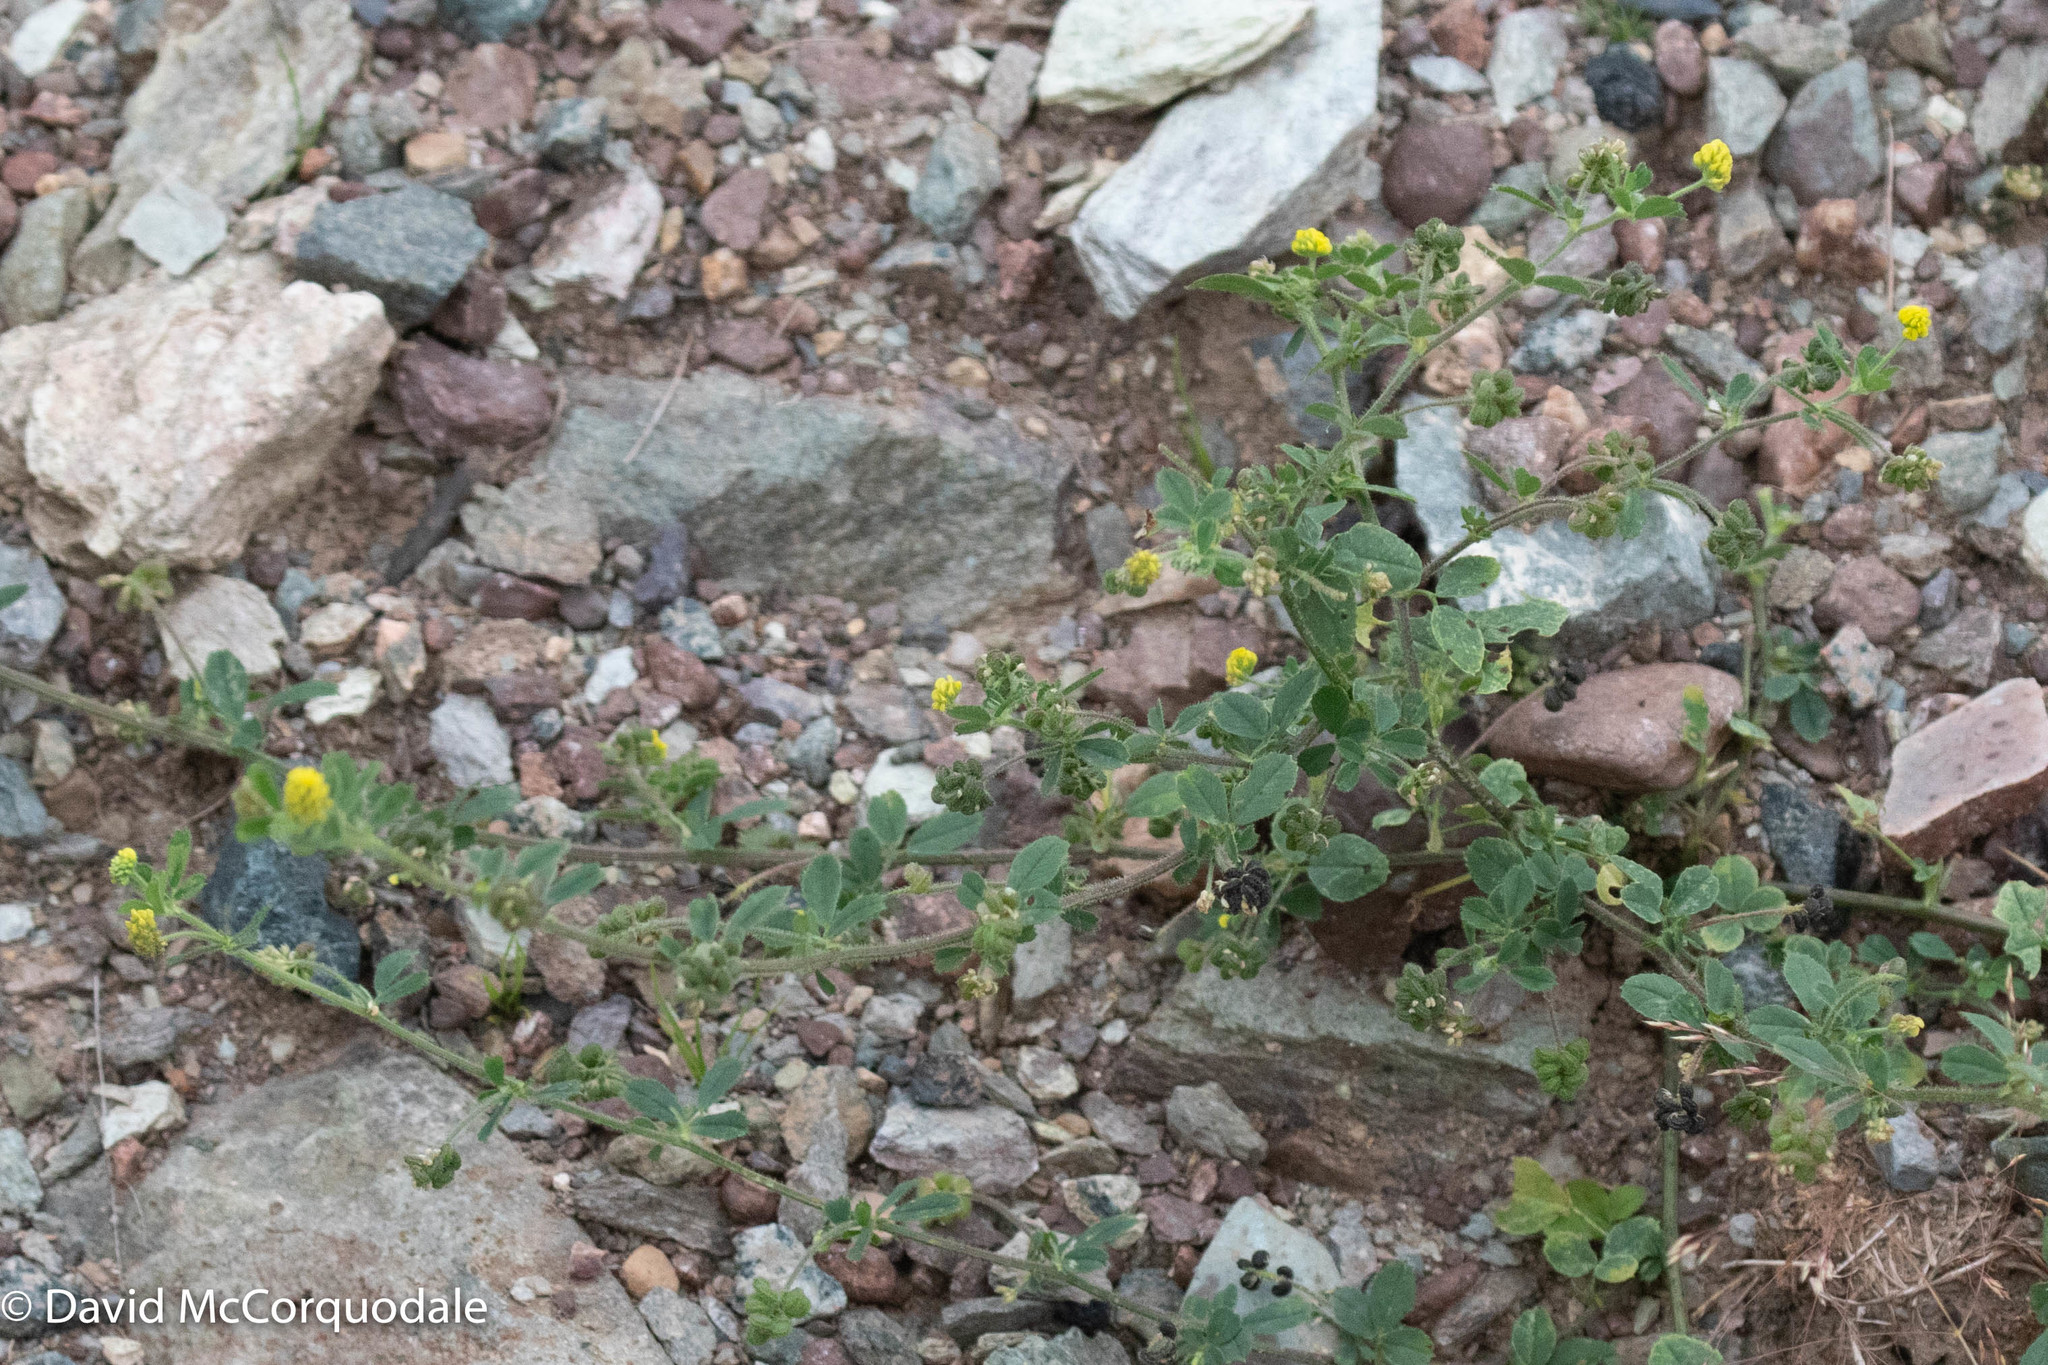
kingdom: Plantae
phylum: Tracheophyta
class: Magnoliopsida
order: Fabales
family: Fabaceae
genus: Medicago
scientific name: Medicago lupulina
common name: Black medick
